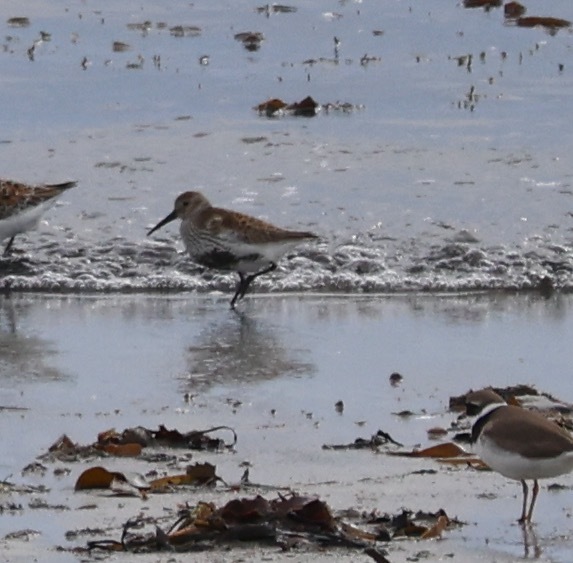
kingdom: Animalia
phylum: Chordata
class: Aves
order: Charadriiformes
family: Scolopacidae
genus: Calidris
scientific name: Calidris alpina
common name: Dunlin
